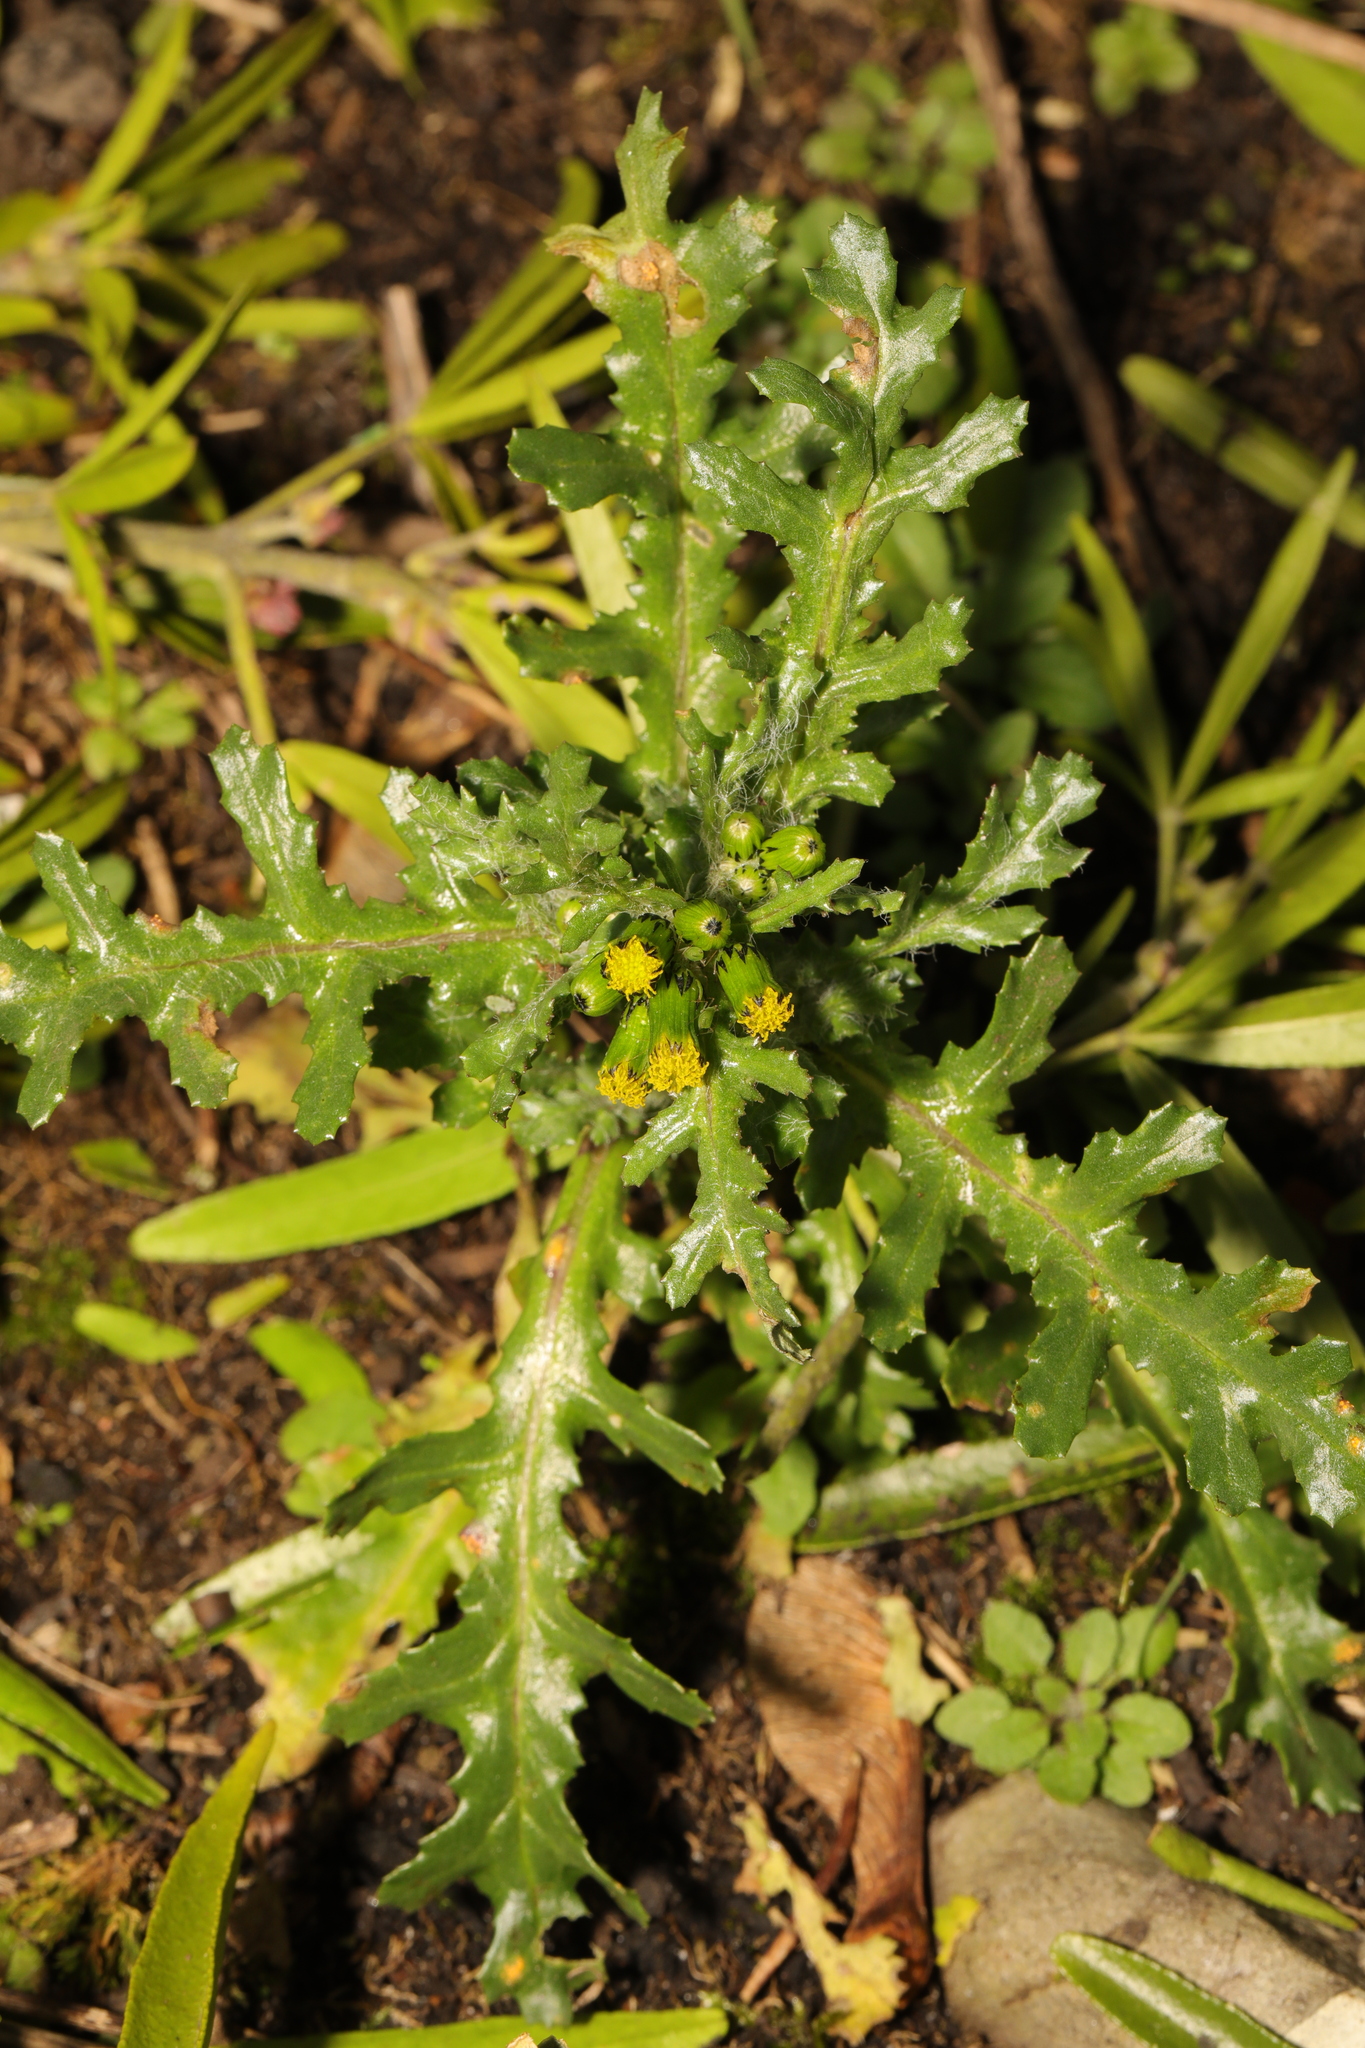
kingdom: Plantae
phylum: Tracheophyta
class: Magnoliopsida
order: Asterales
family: Asteraceae
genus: Senecio
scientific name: Senecio vulgaris
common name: Old-man-in-the-spring
